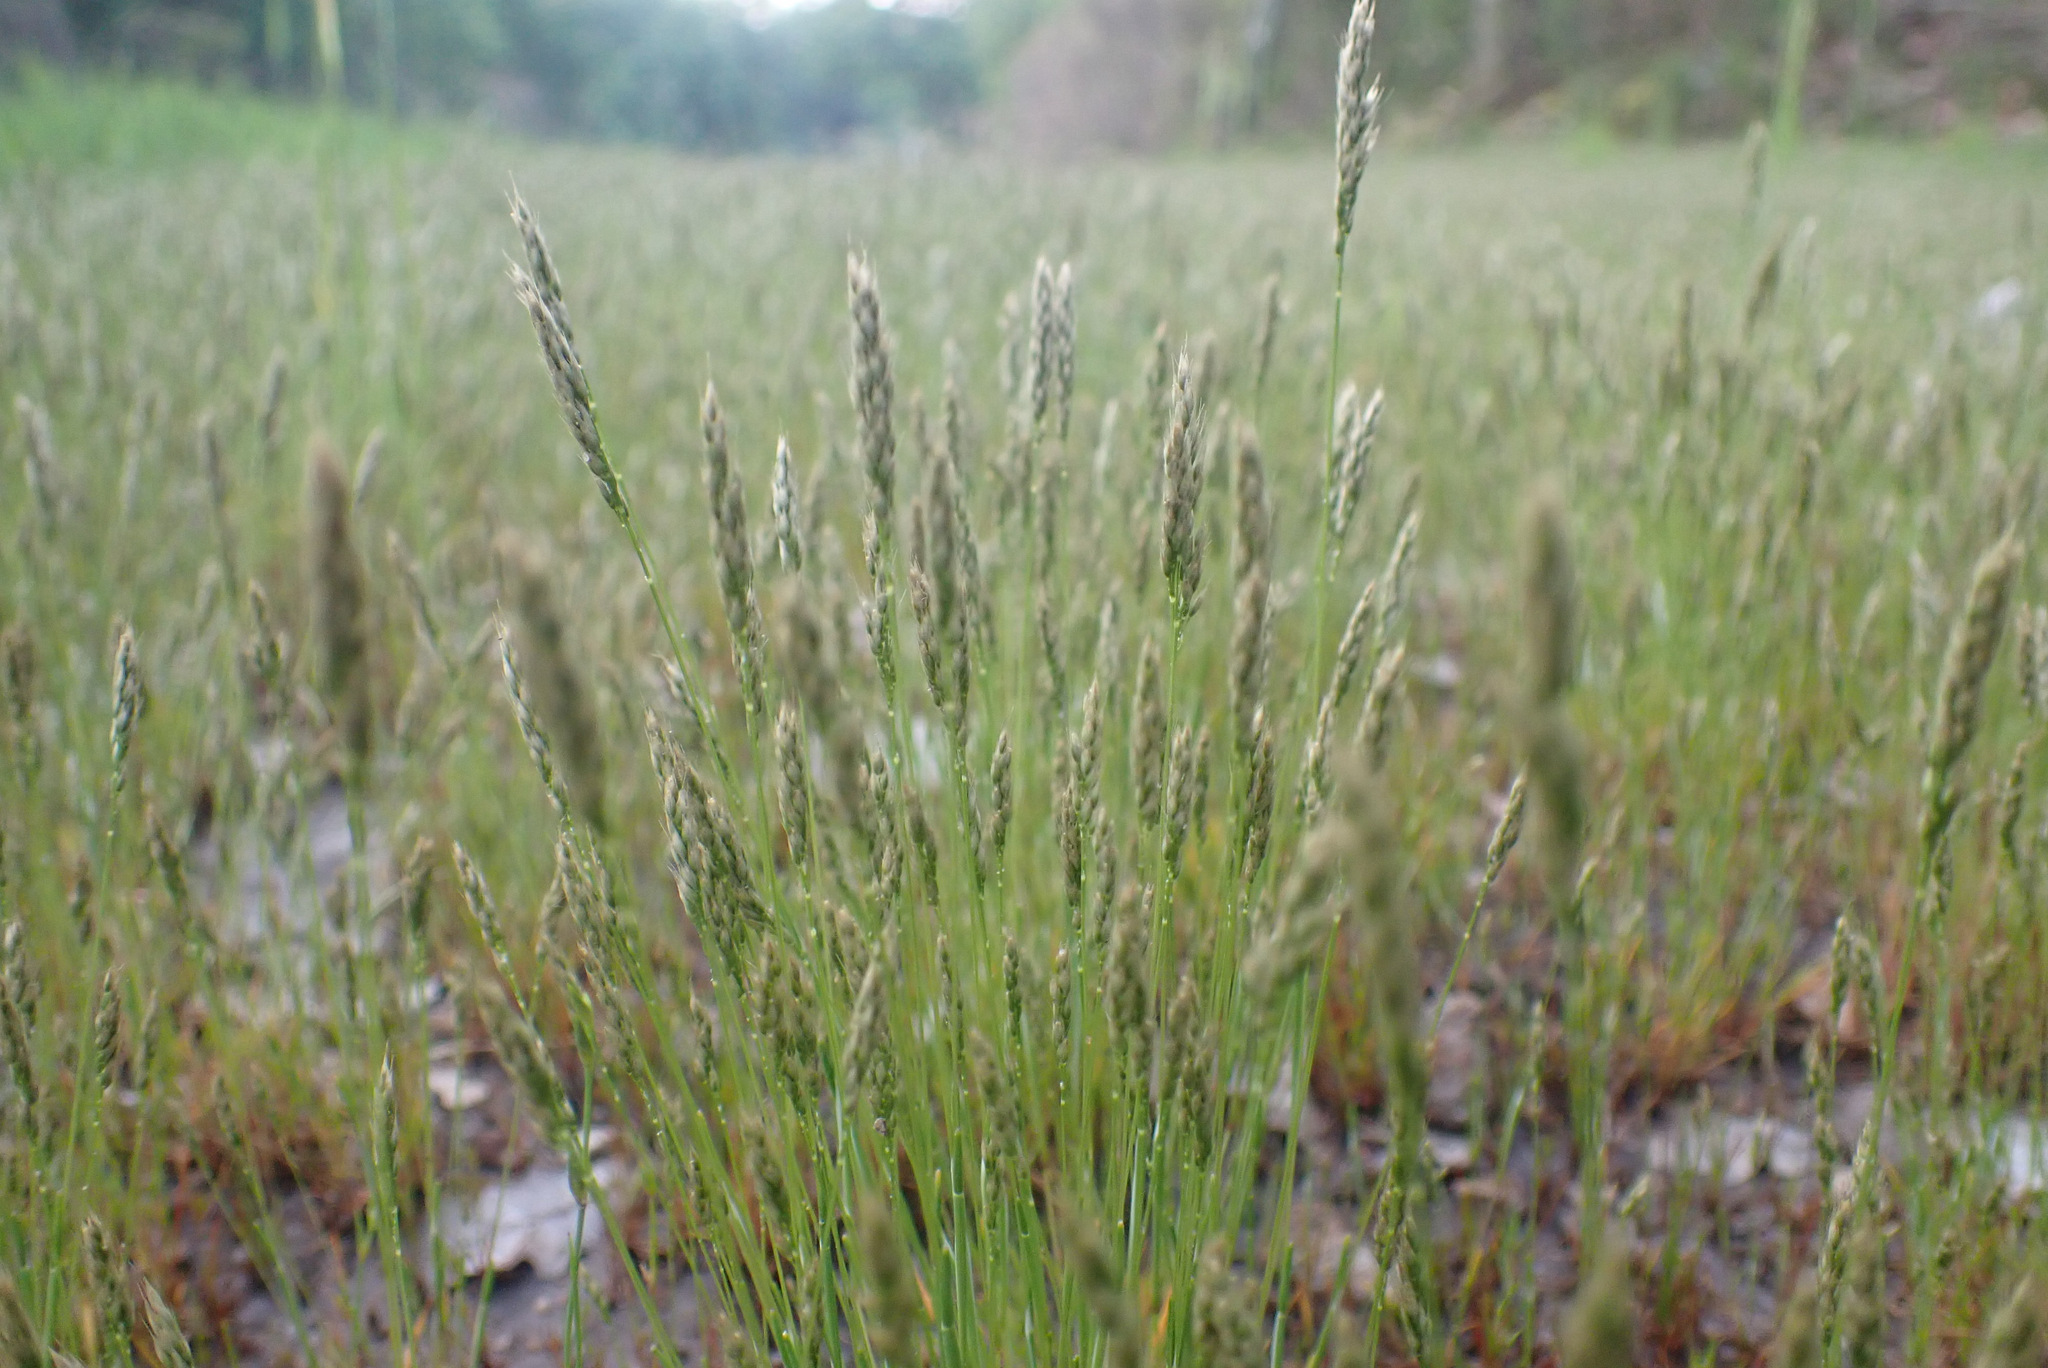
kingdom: Plantae
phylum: Tracheophyta
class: Liliopsida
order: Poales
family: Poaceae
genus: Aira
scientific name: Aira praecox
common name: Early hair-grass
